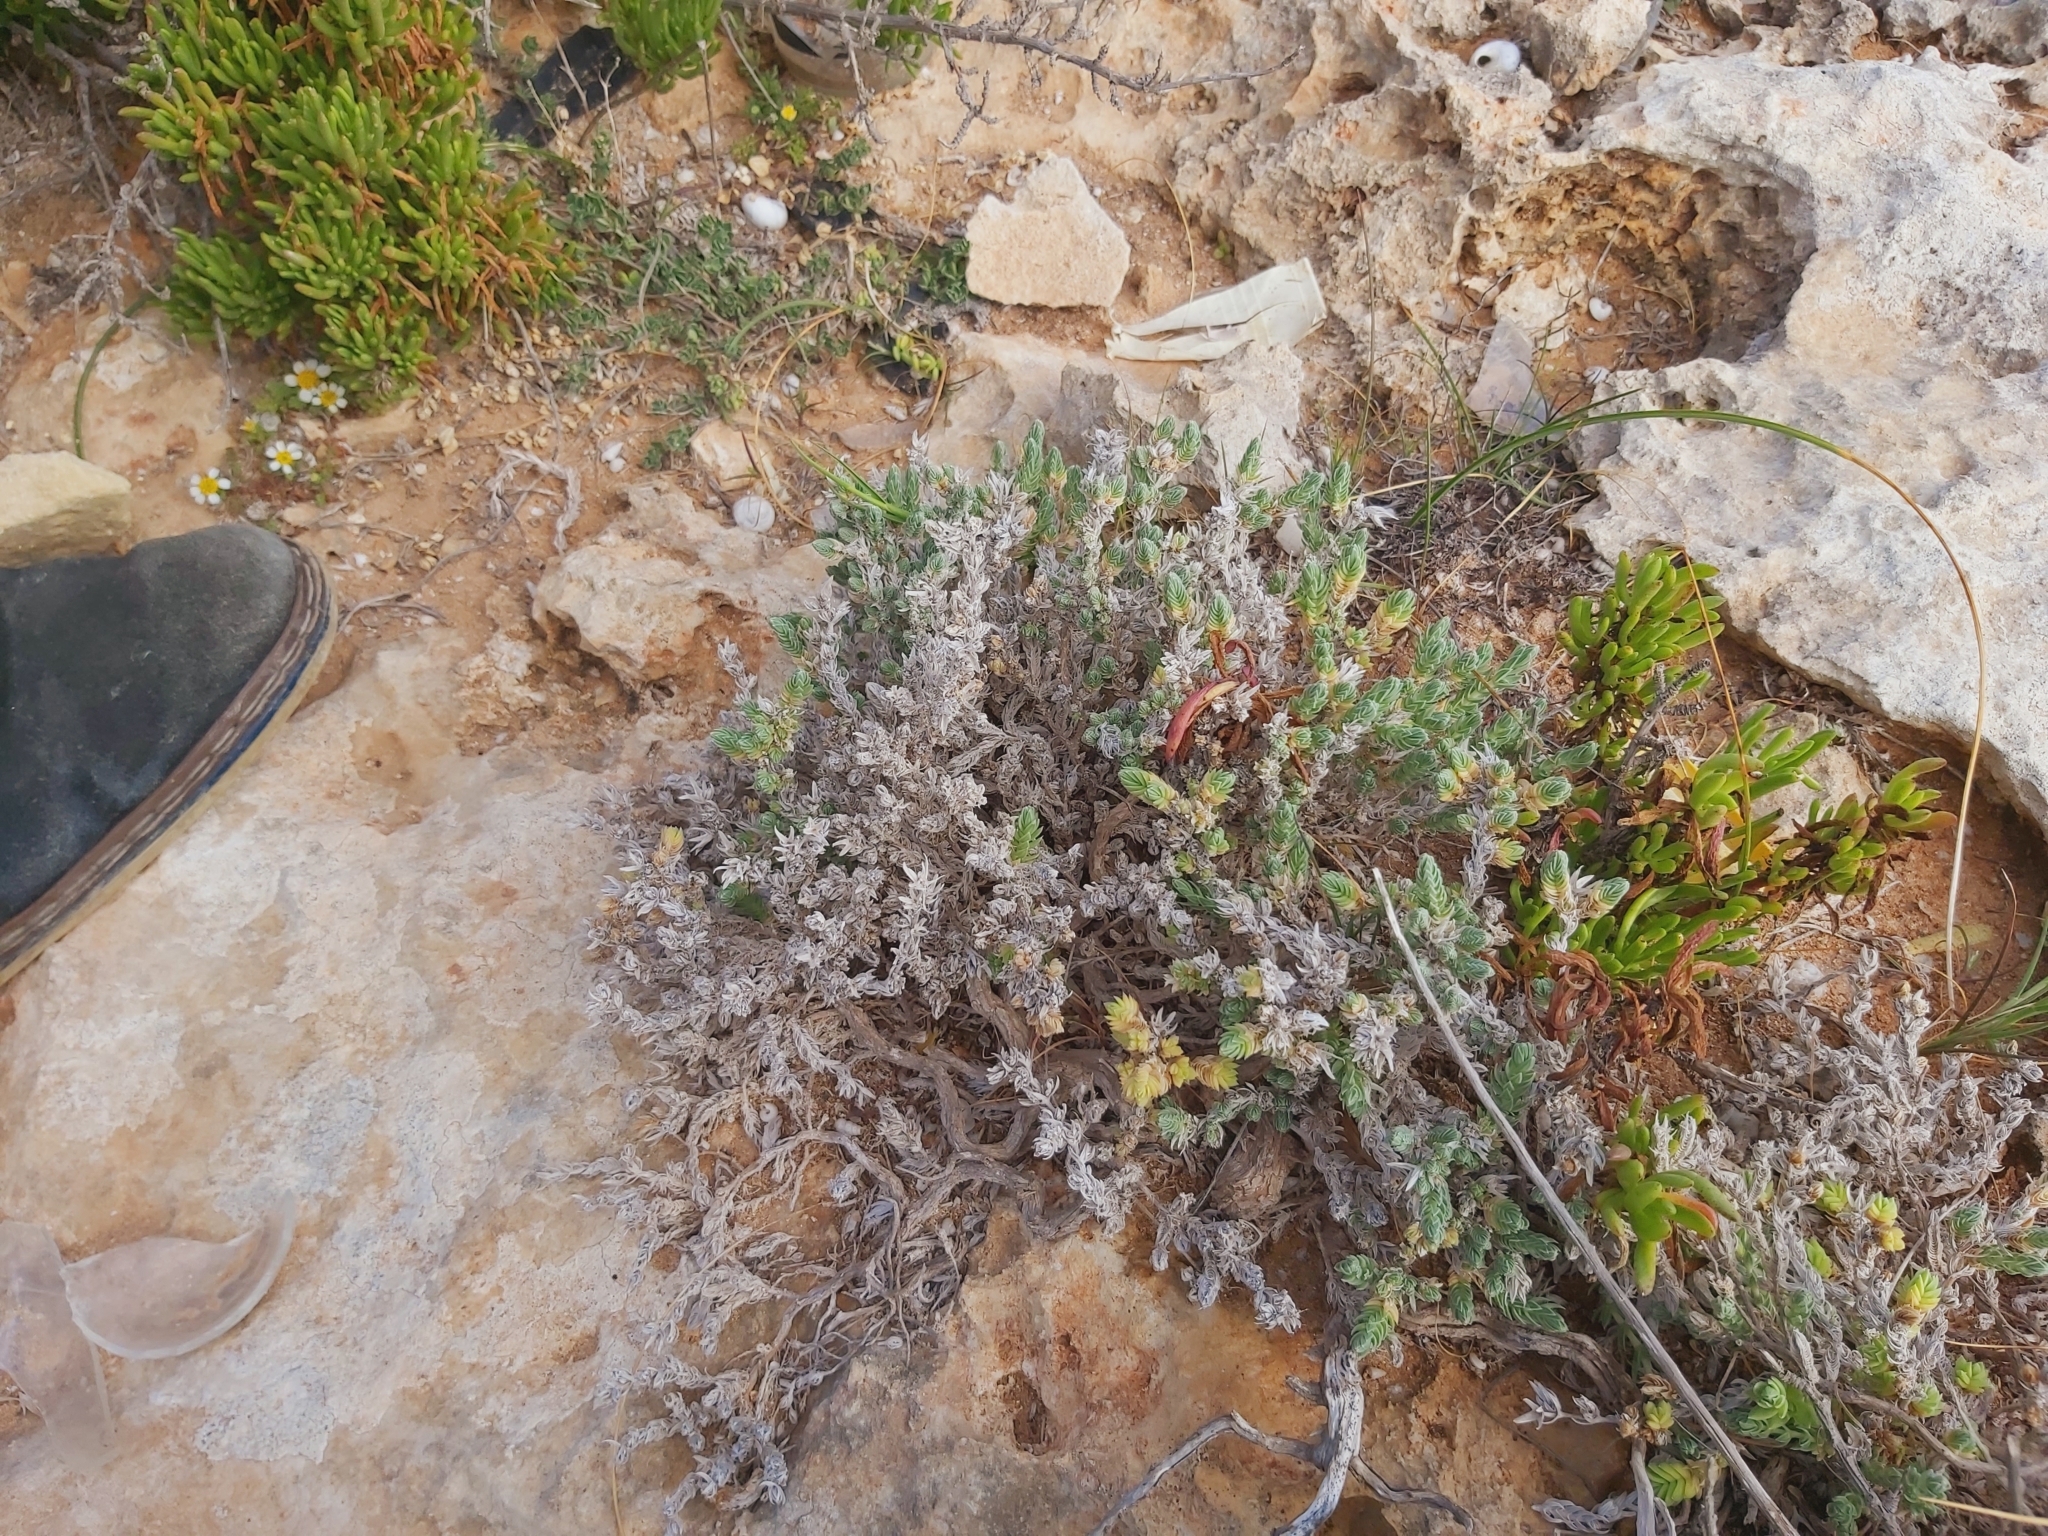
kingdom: Plantae
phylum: Tracheophyta
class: Magnoliopsida
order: Gentianales
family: Rubiaceae
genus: Crucianella
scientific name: Crucianella maritima
